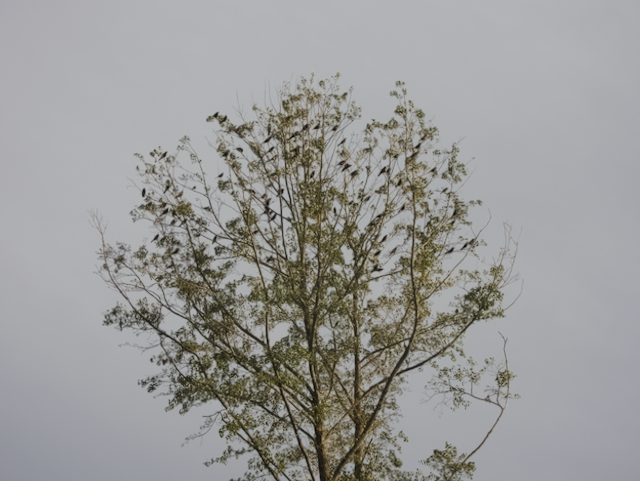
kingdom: Animalia
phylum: Chordata
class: Aves
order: Passeriformes
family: Icteridae
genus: Quiscalus
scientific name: Quiscalus quiscula
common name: Common grackle
